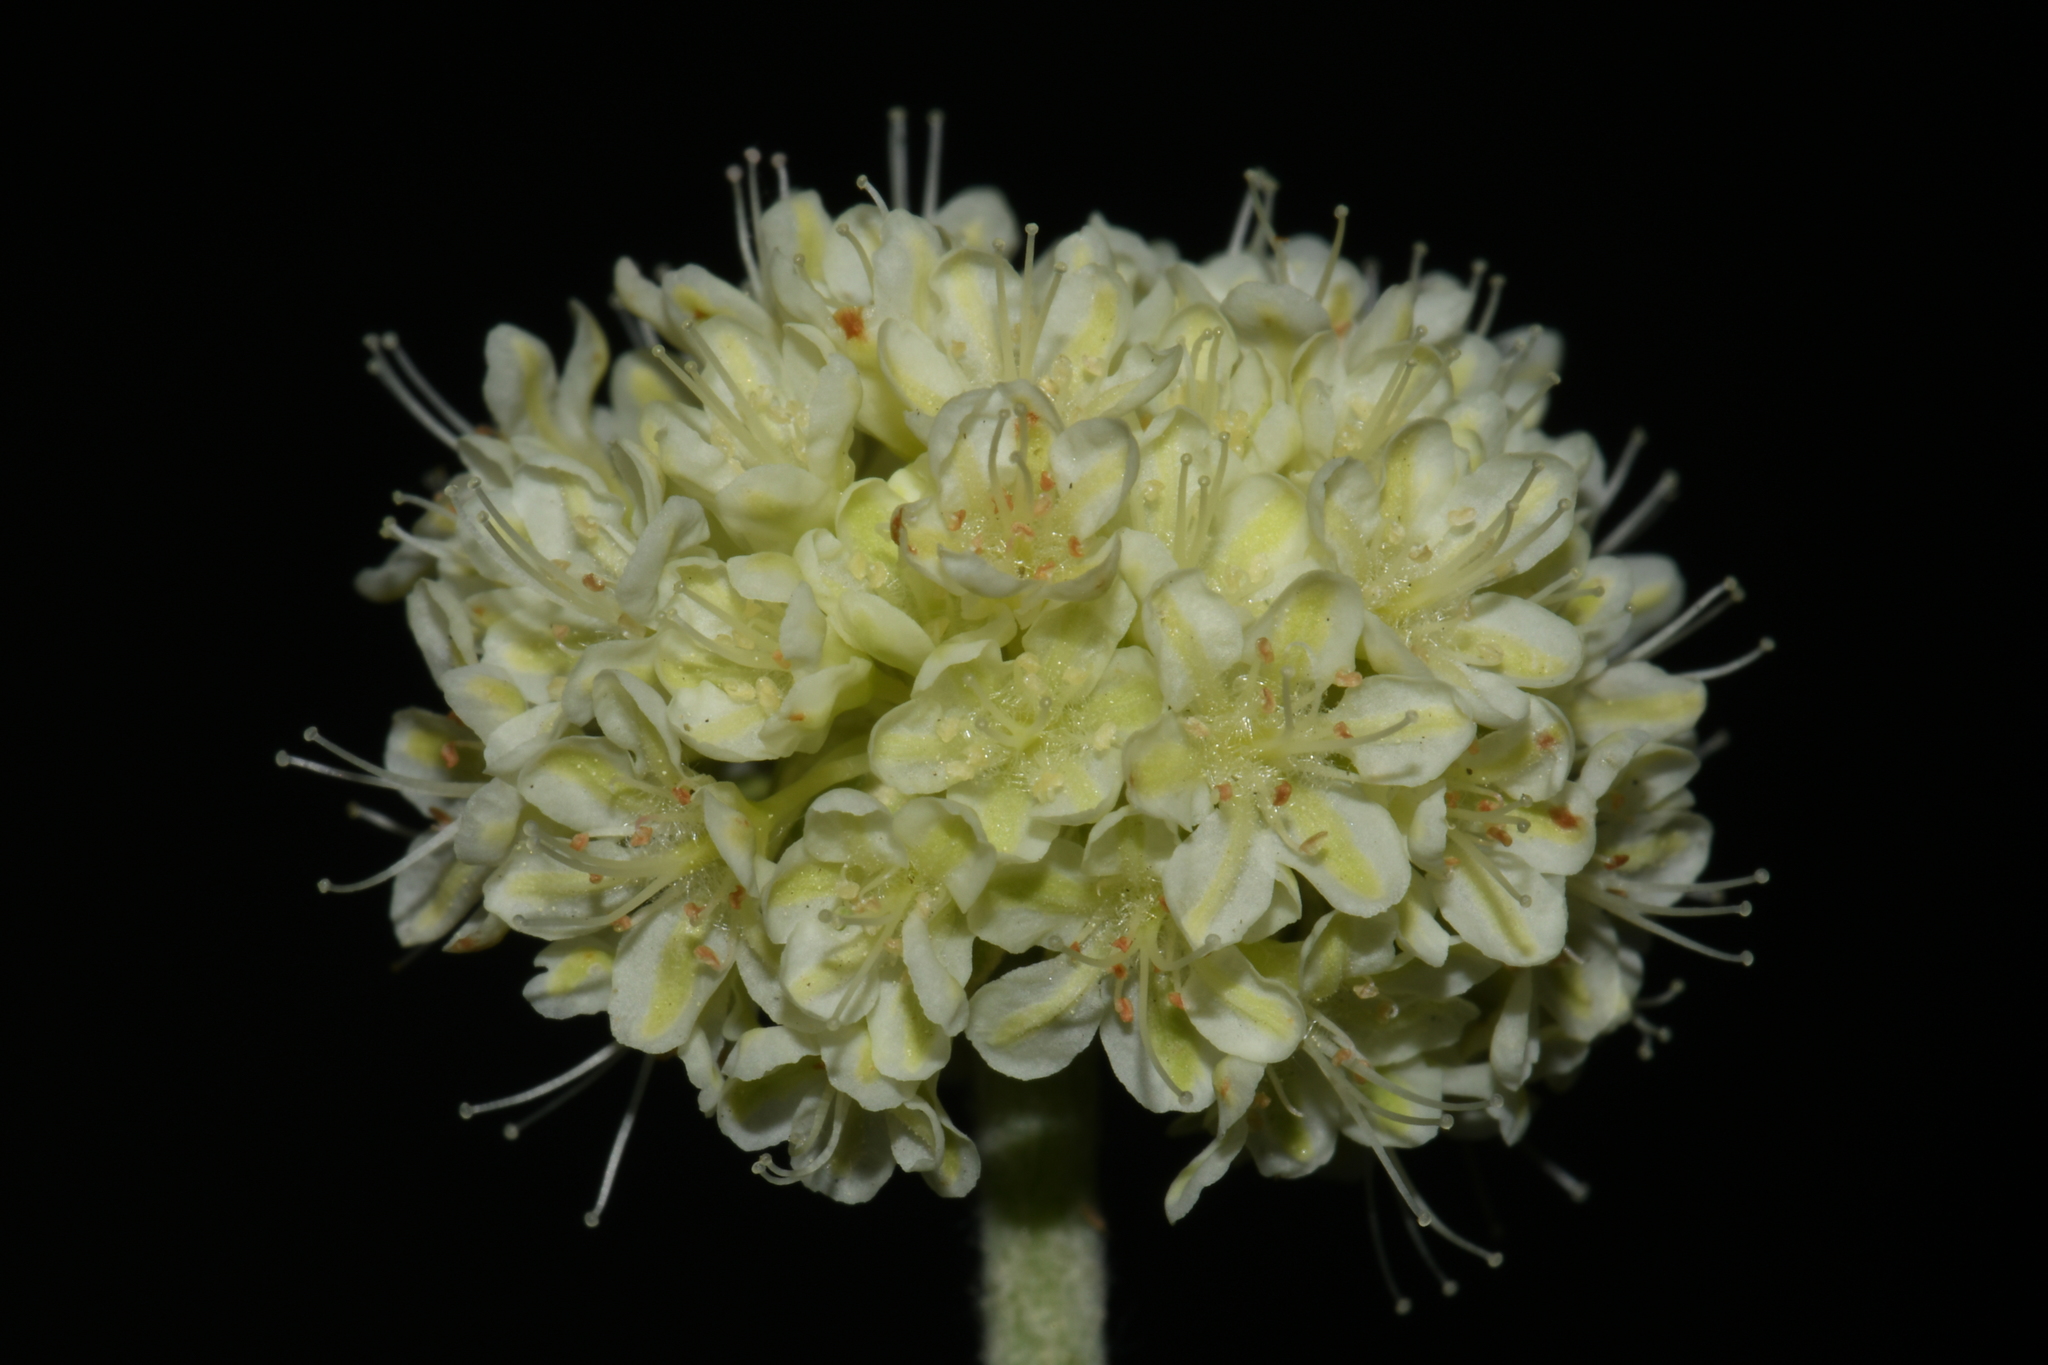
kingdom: Plantae
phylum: Tracheophyta
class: Magnoliopsida
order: Caryophyllales
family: Polygonaceae
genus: Eriogonum
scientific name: Eriogonum heracleoides
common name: Wyeth's buckwheat
